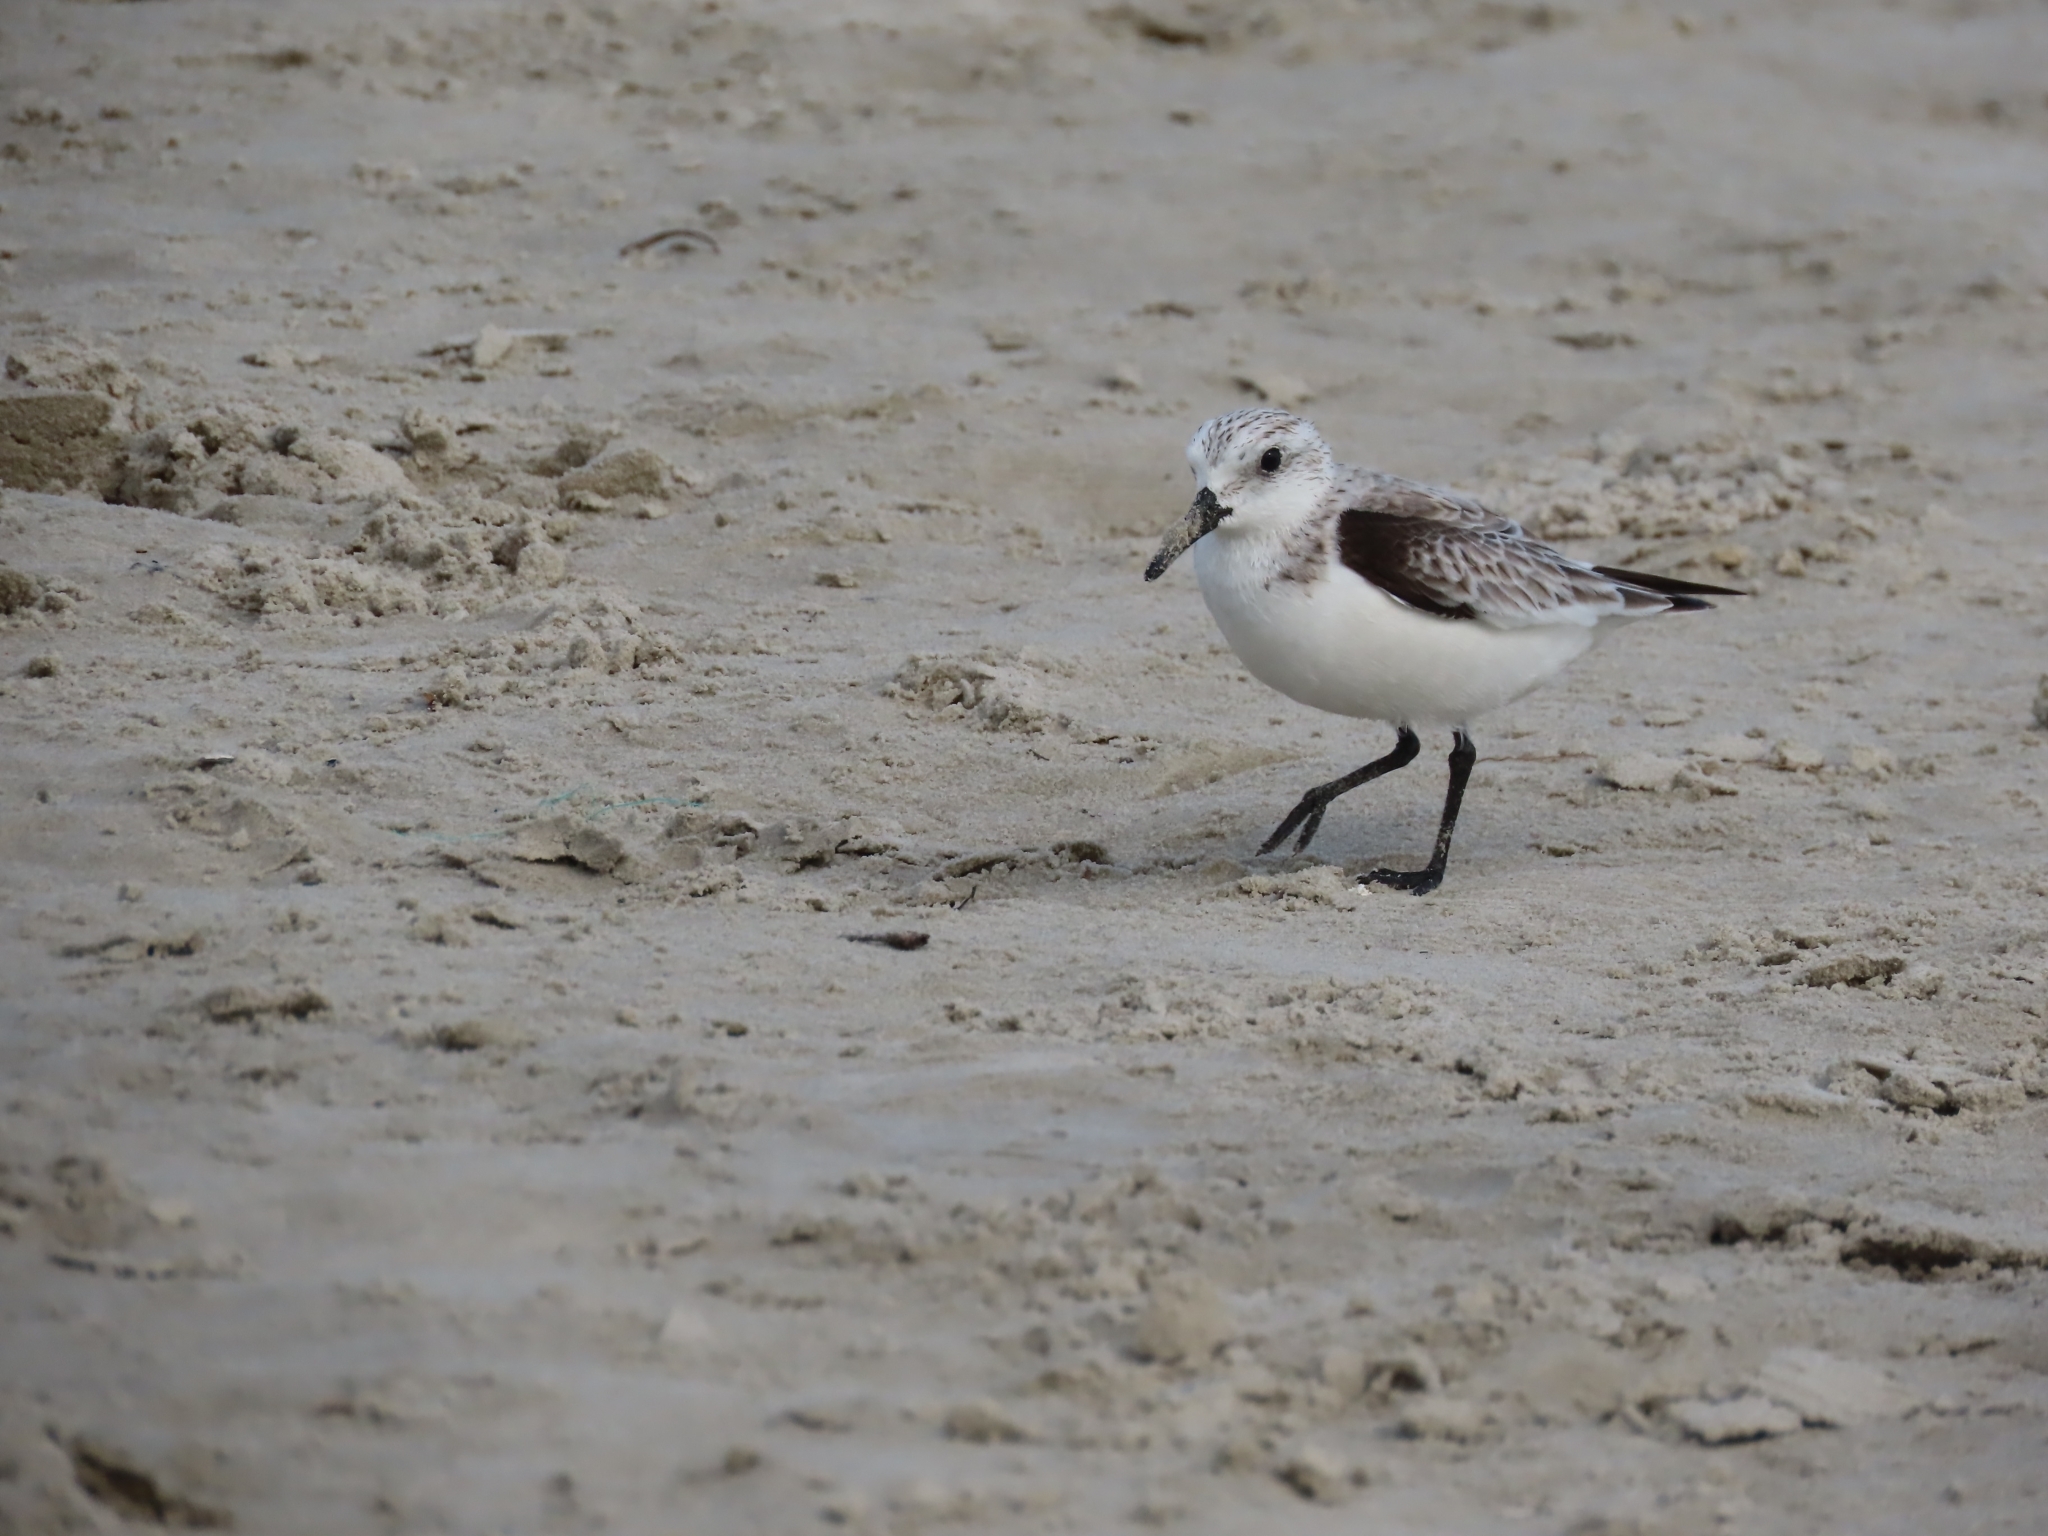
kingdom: Animalia
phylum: Chordata
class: Aves
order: Charadriiformes
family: Scolopacidae
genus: Calidris
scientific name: Calidris alba
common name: Sanderling
